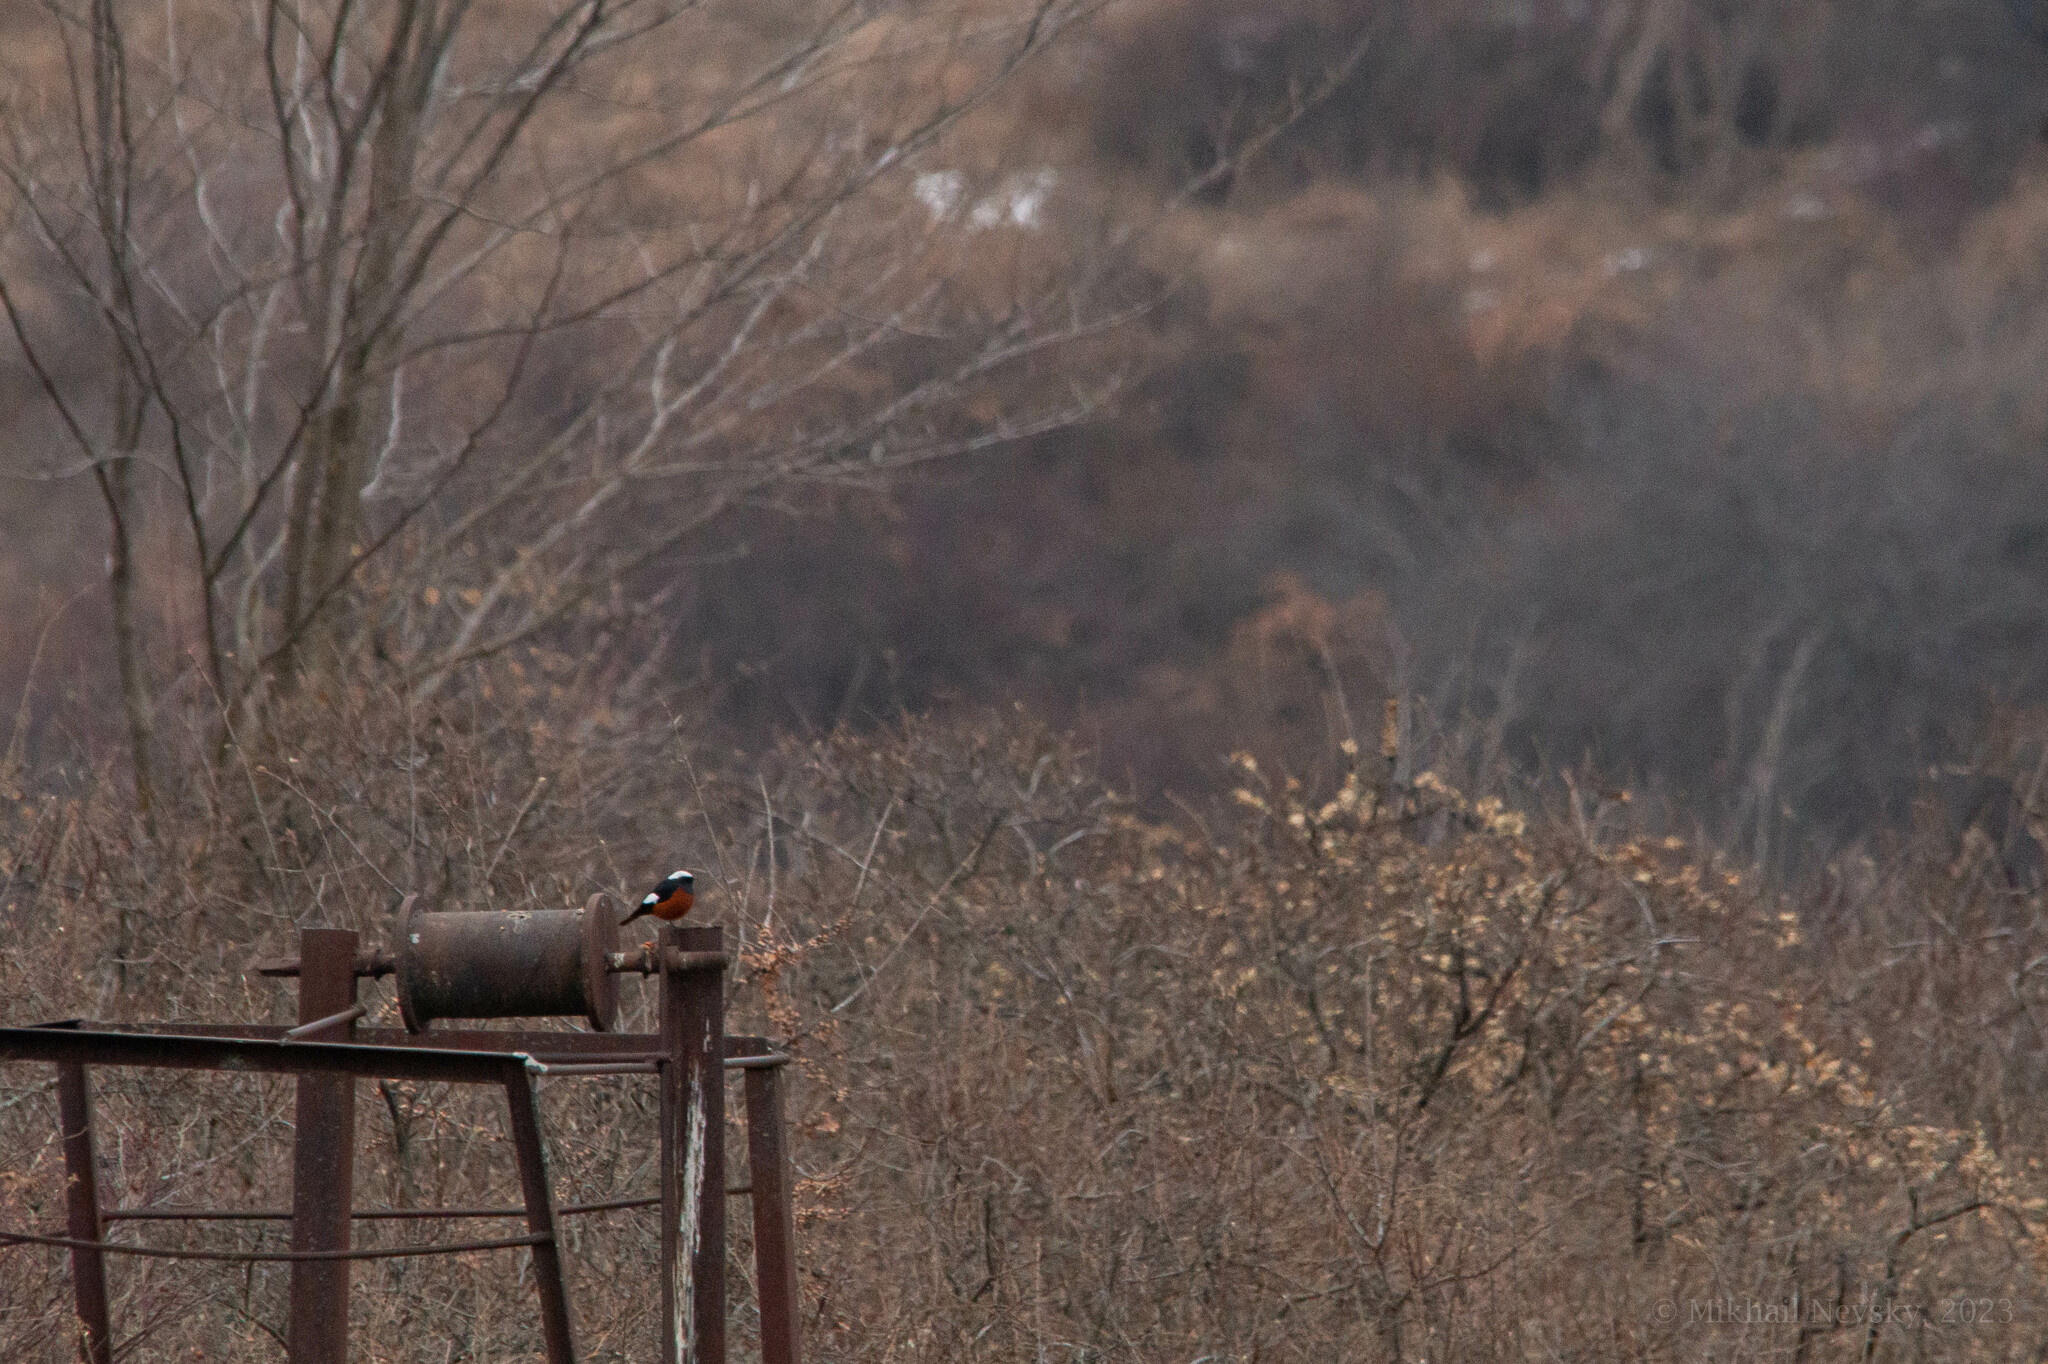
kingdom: Animalia
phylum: Chordata
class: Aves
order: Passeriformes
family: Muscicapidae
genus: Phoenicurus
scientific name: Phoenicurus erythrogastrus
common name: Güldenstädt's redstart
